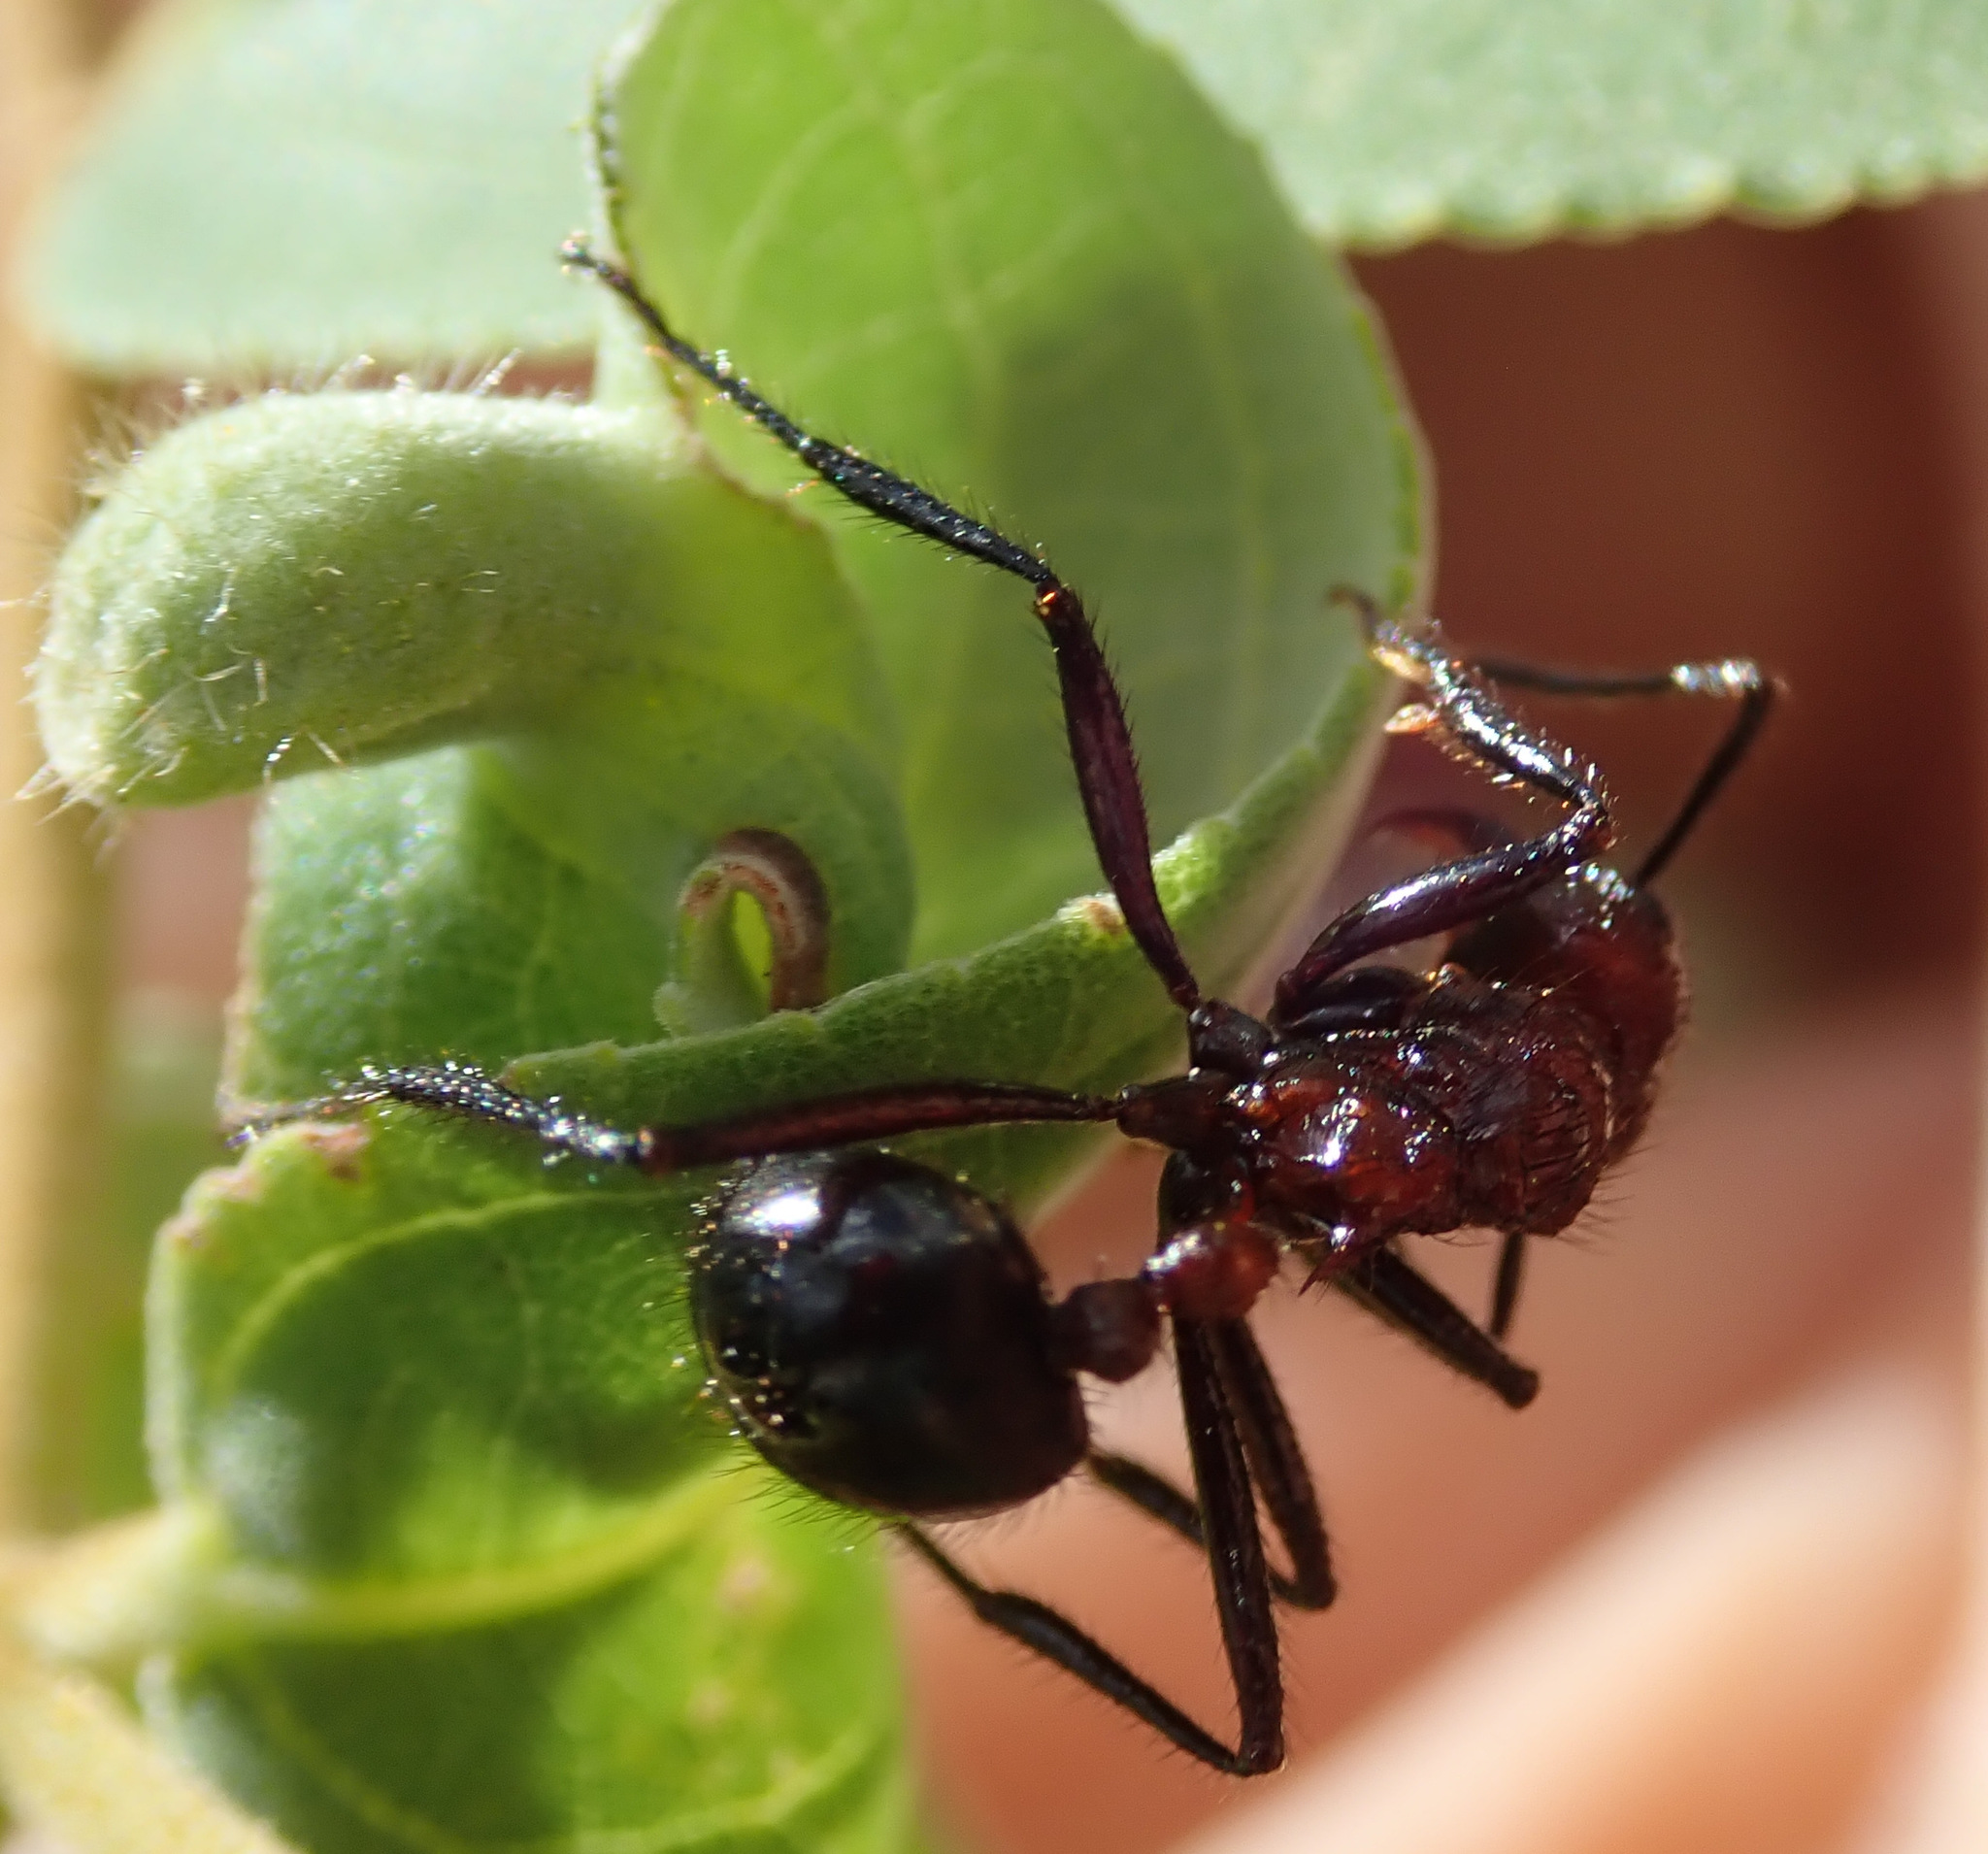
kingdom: Animalia
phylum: Arthropoda
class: Insecta
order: Hymenoptera
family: Formicidae
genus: Myrmicaria
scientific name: Myrmicaria natalensis
